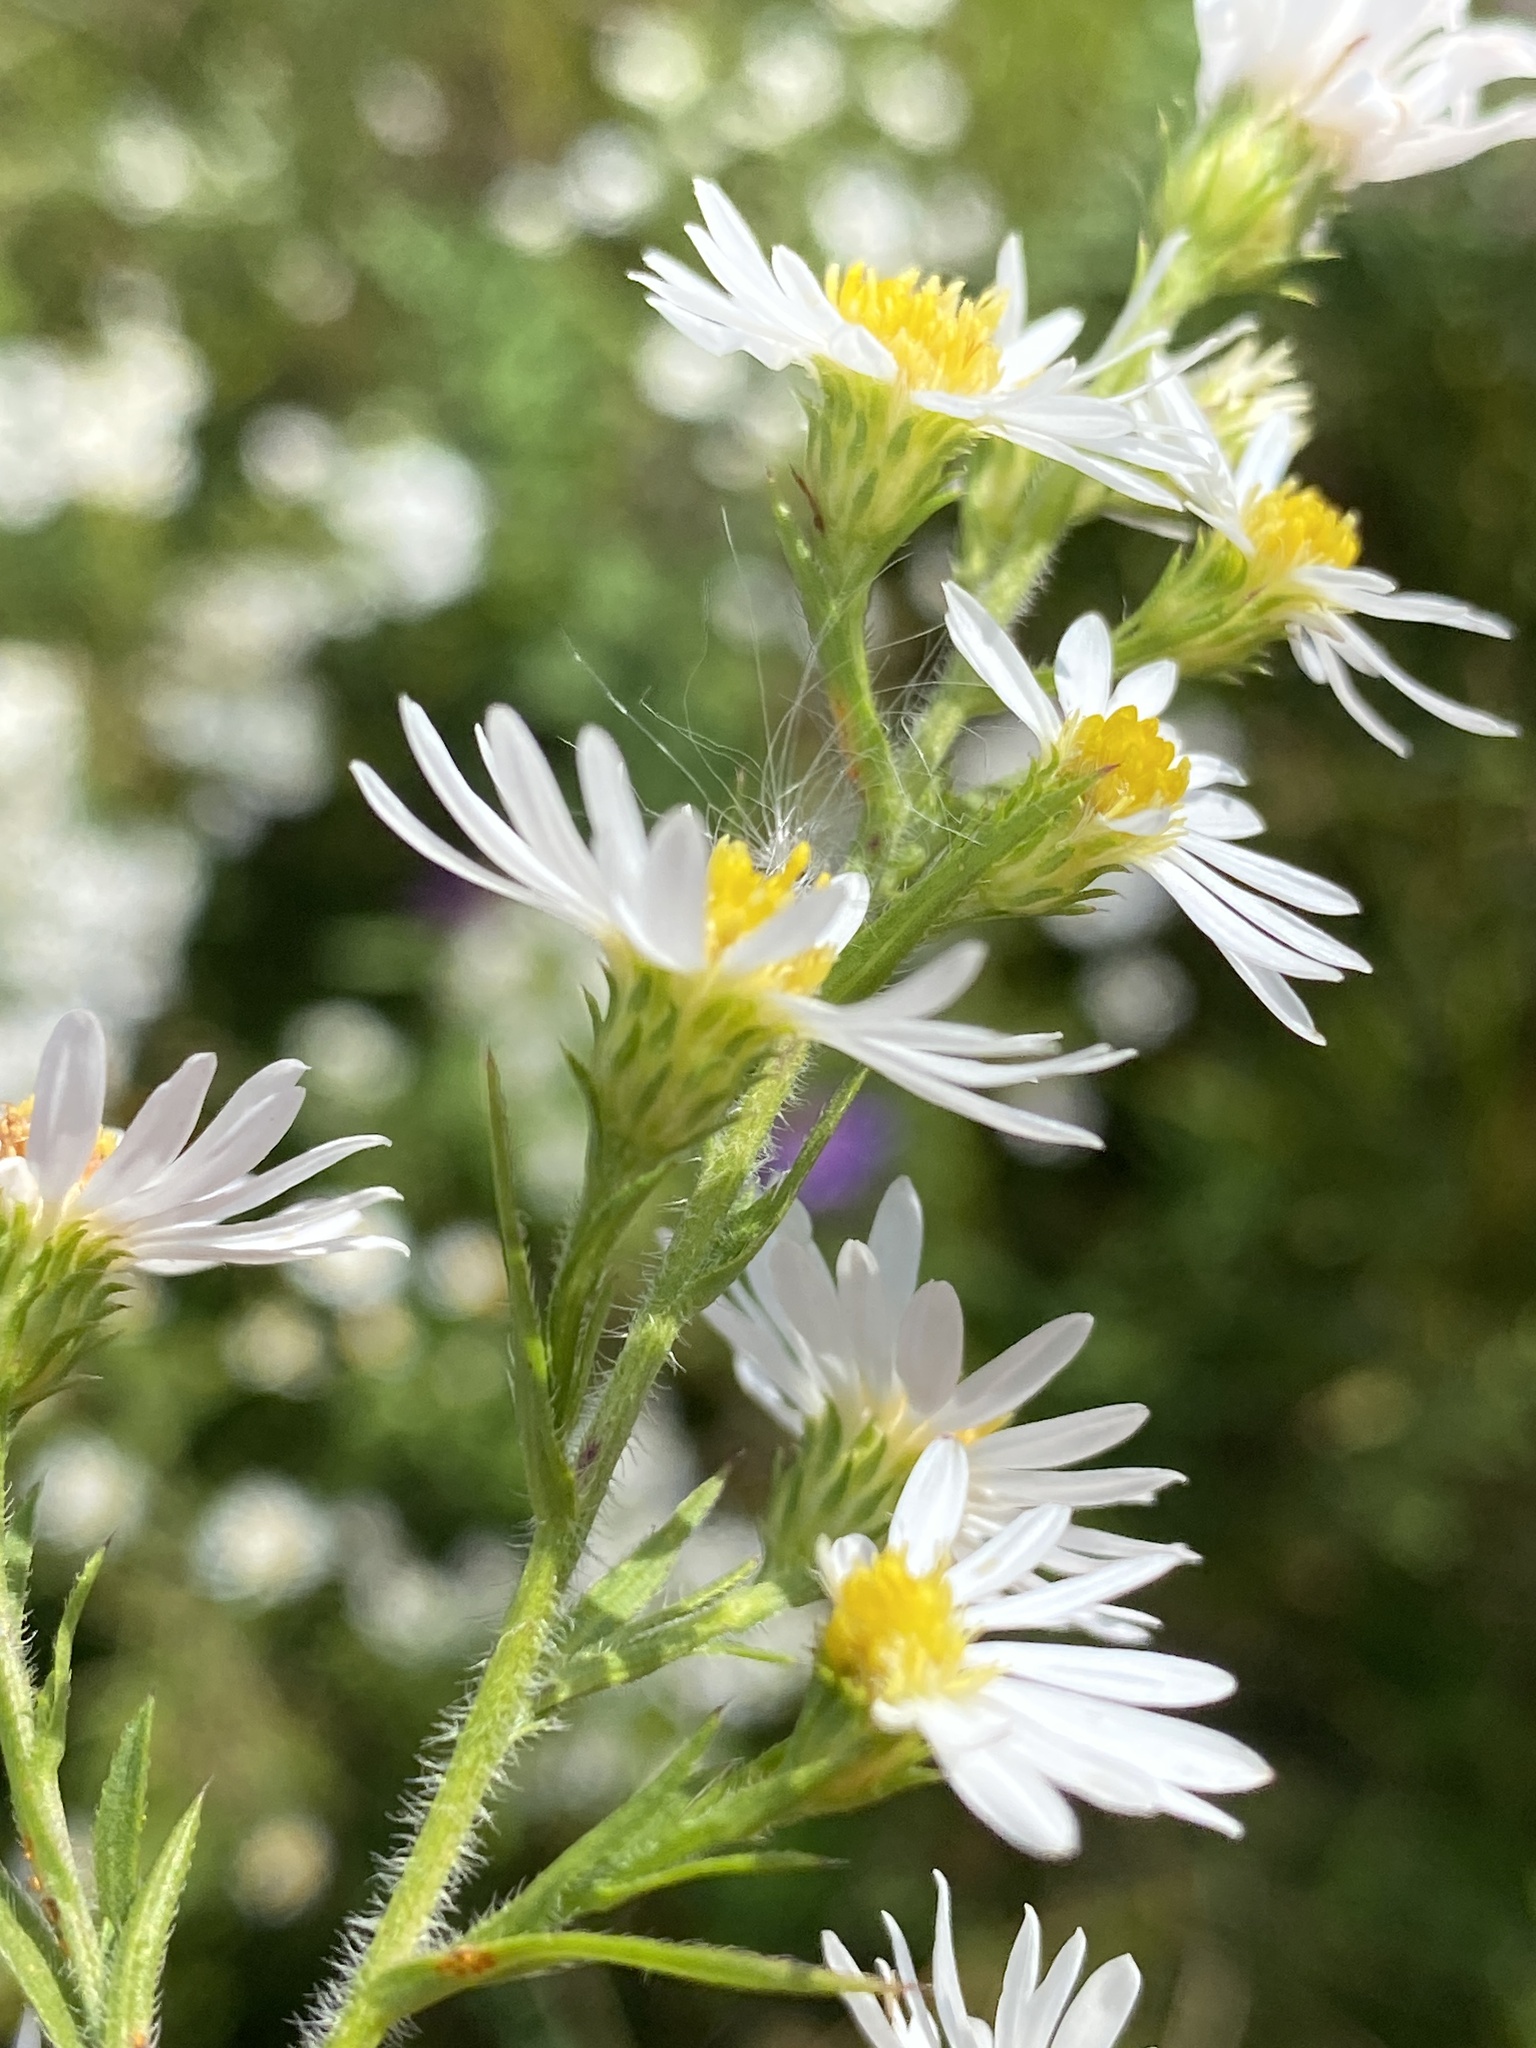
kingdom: Plantae
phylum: Tracheophyta
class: Magnoliopsida
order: Asterales
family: Asteraceae
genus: Symphyotrichum
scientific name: Symphyotrichum pilosum
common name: Awl aster
